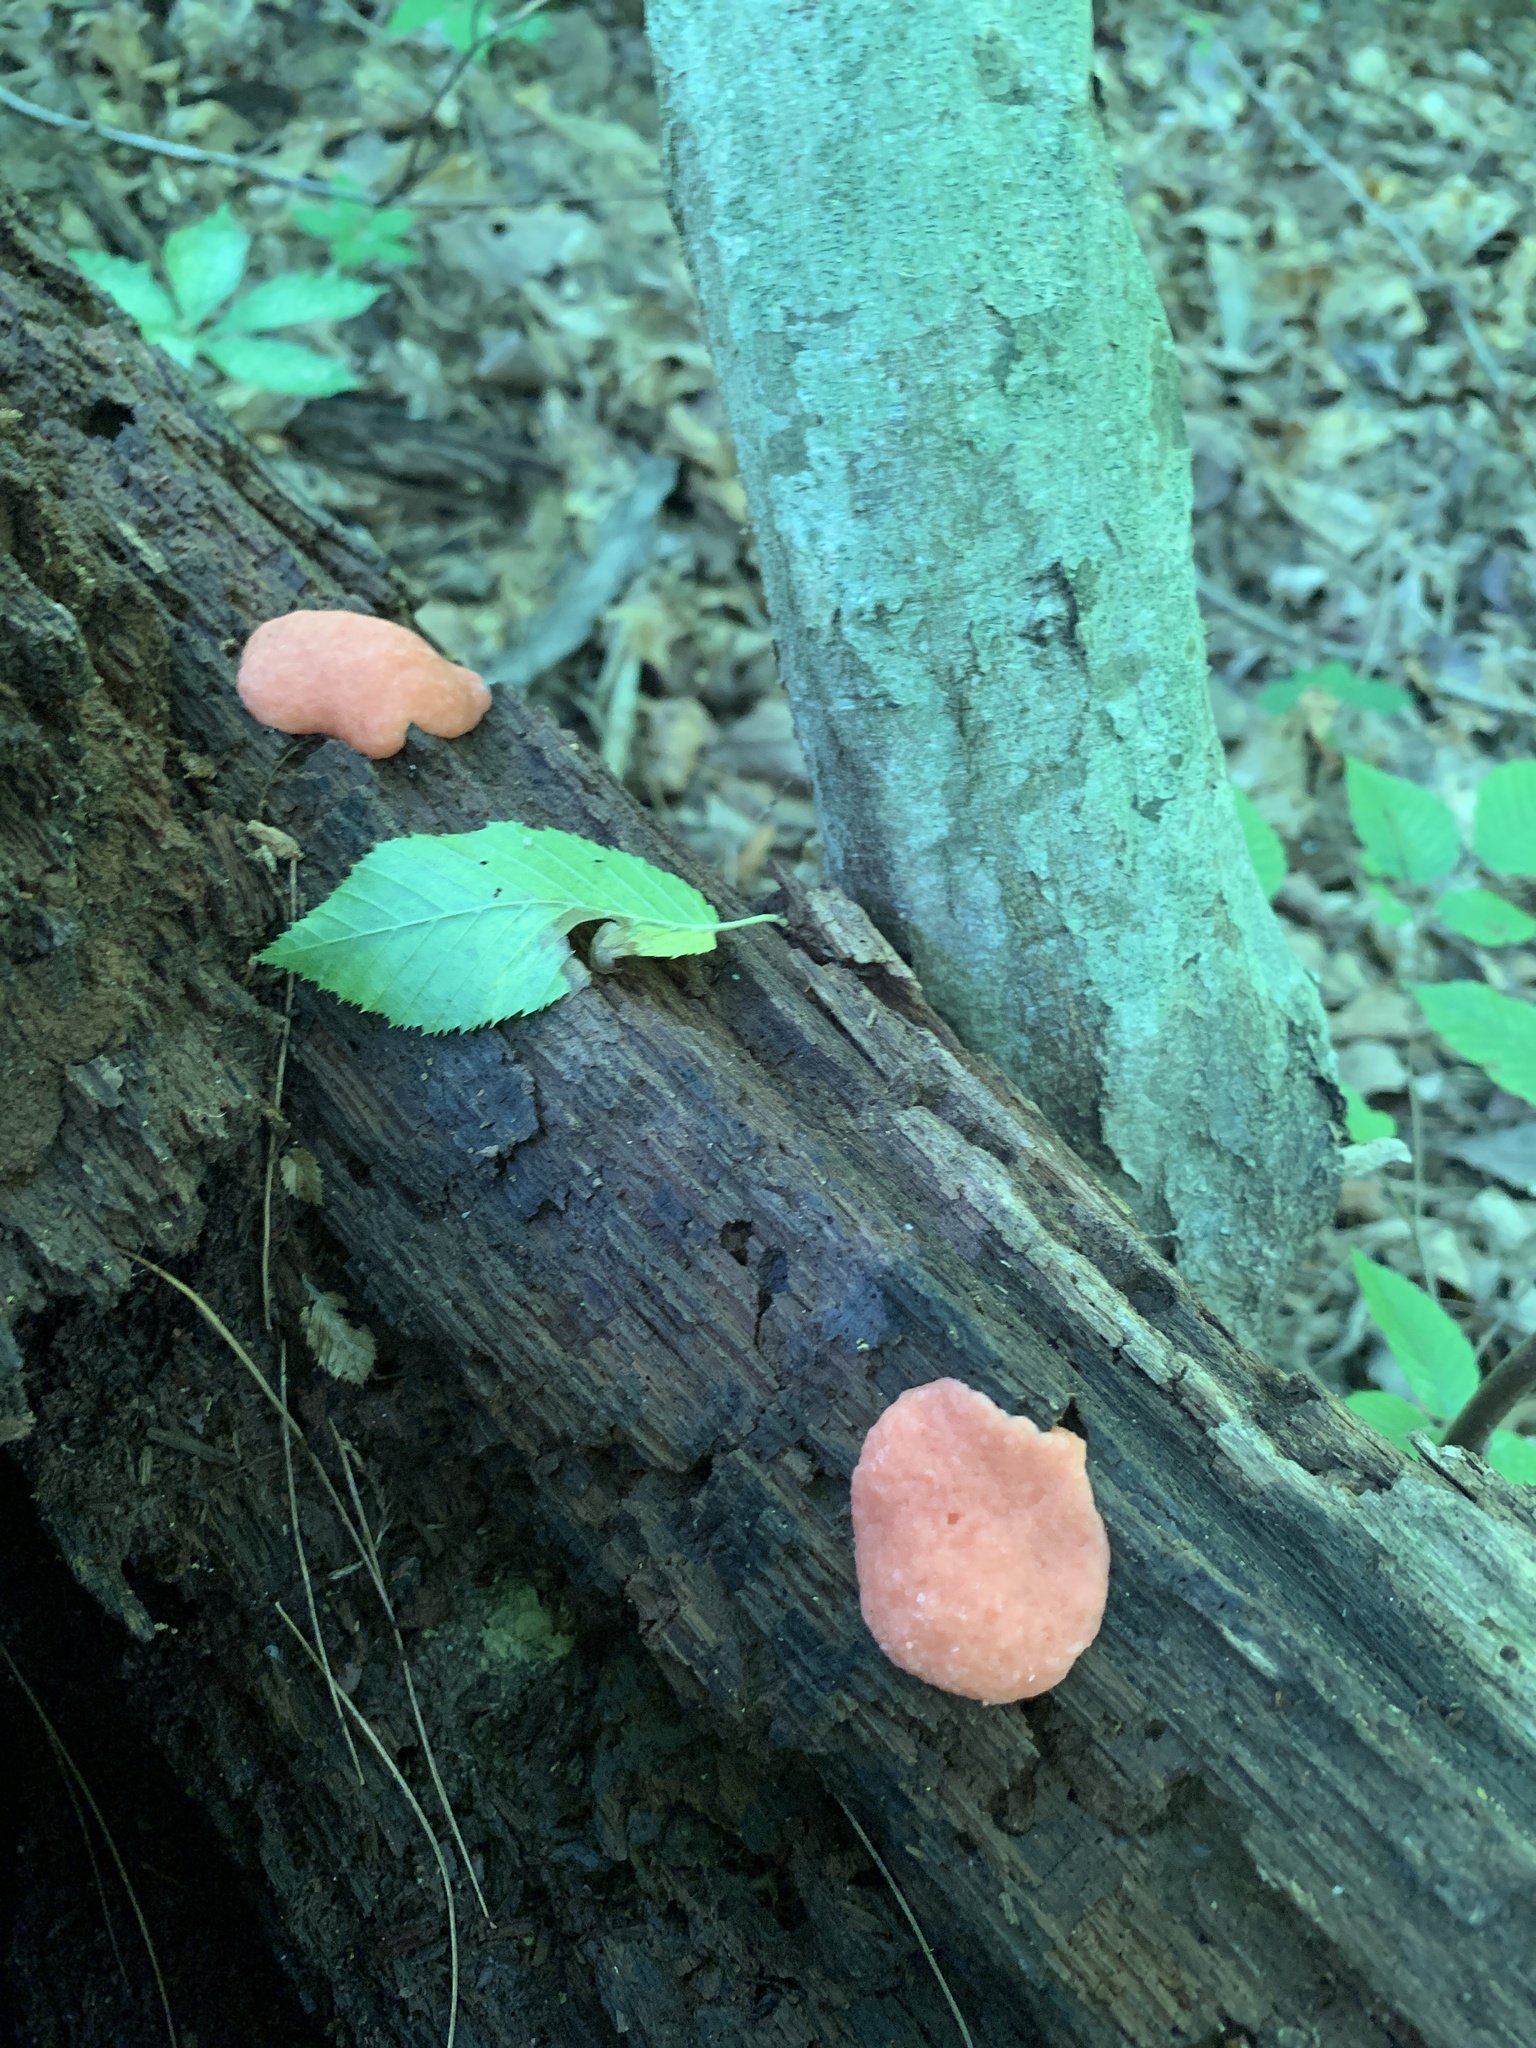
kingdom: Protozoa
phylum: Mycetozoa
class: Myxomycetes
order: Cribrariales
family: Tubiferaceae
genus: Tubifera
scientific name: Tubifera ferruginosa
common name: Red raspberry slime mold
